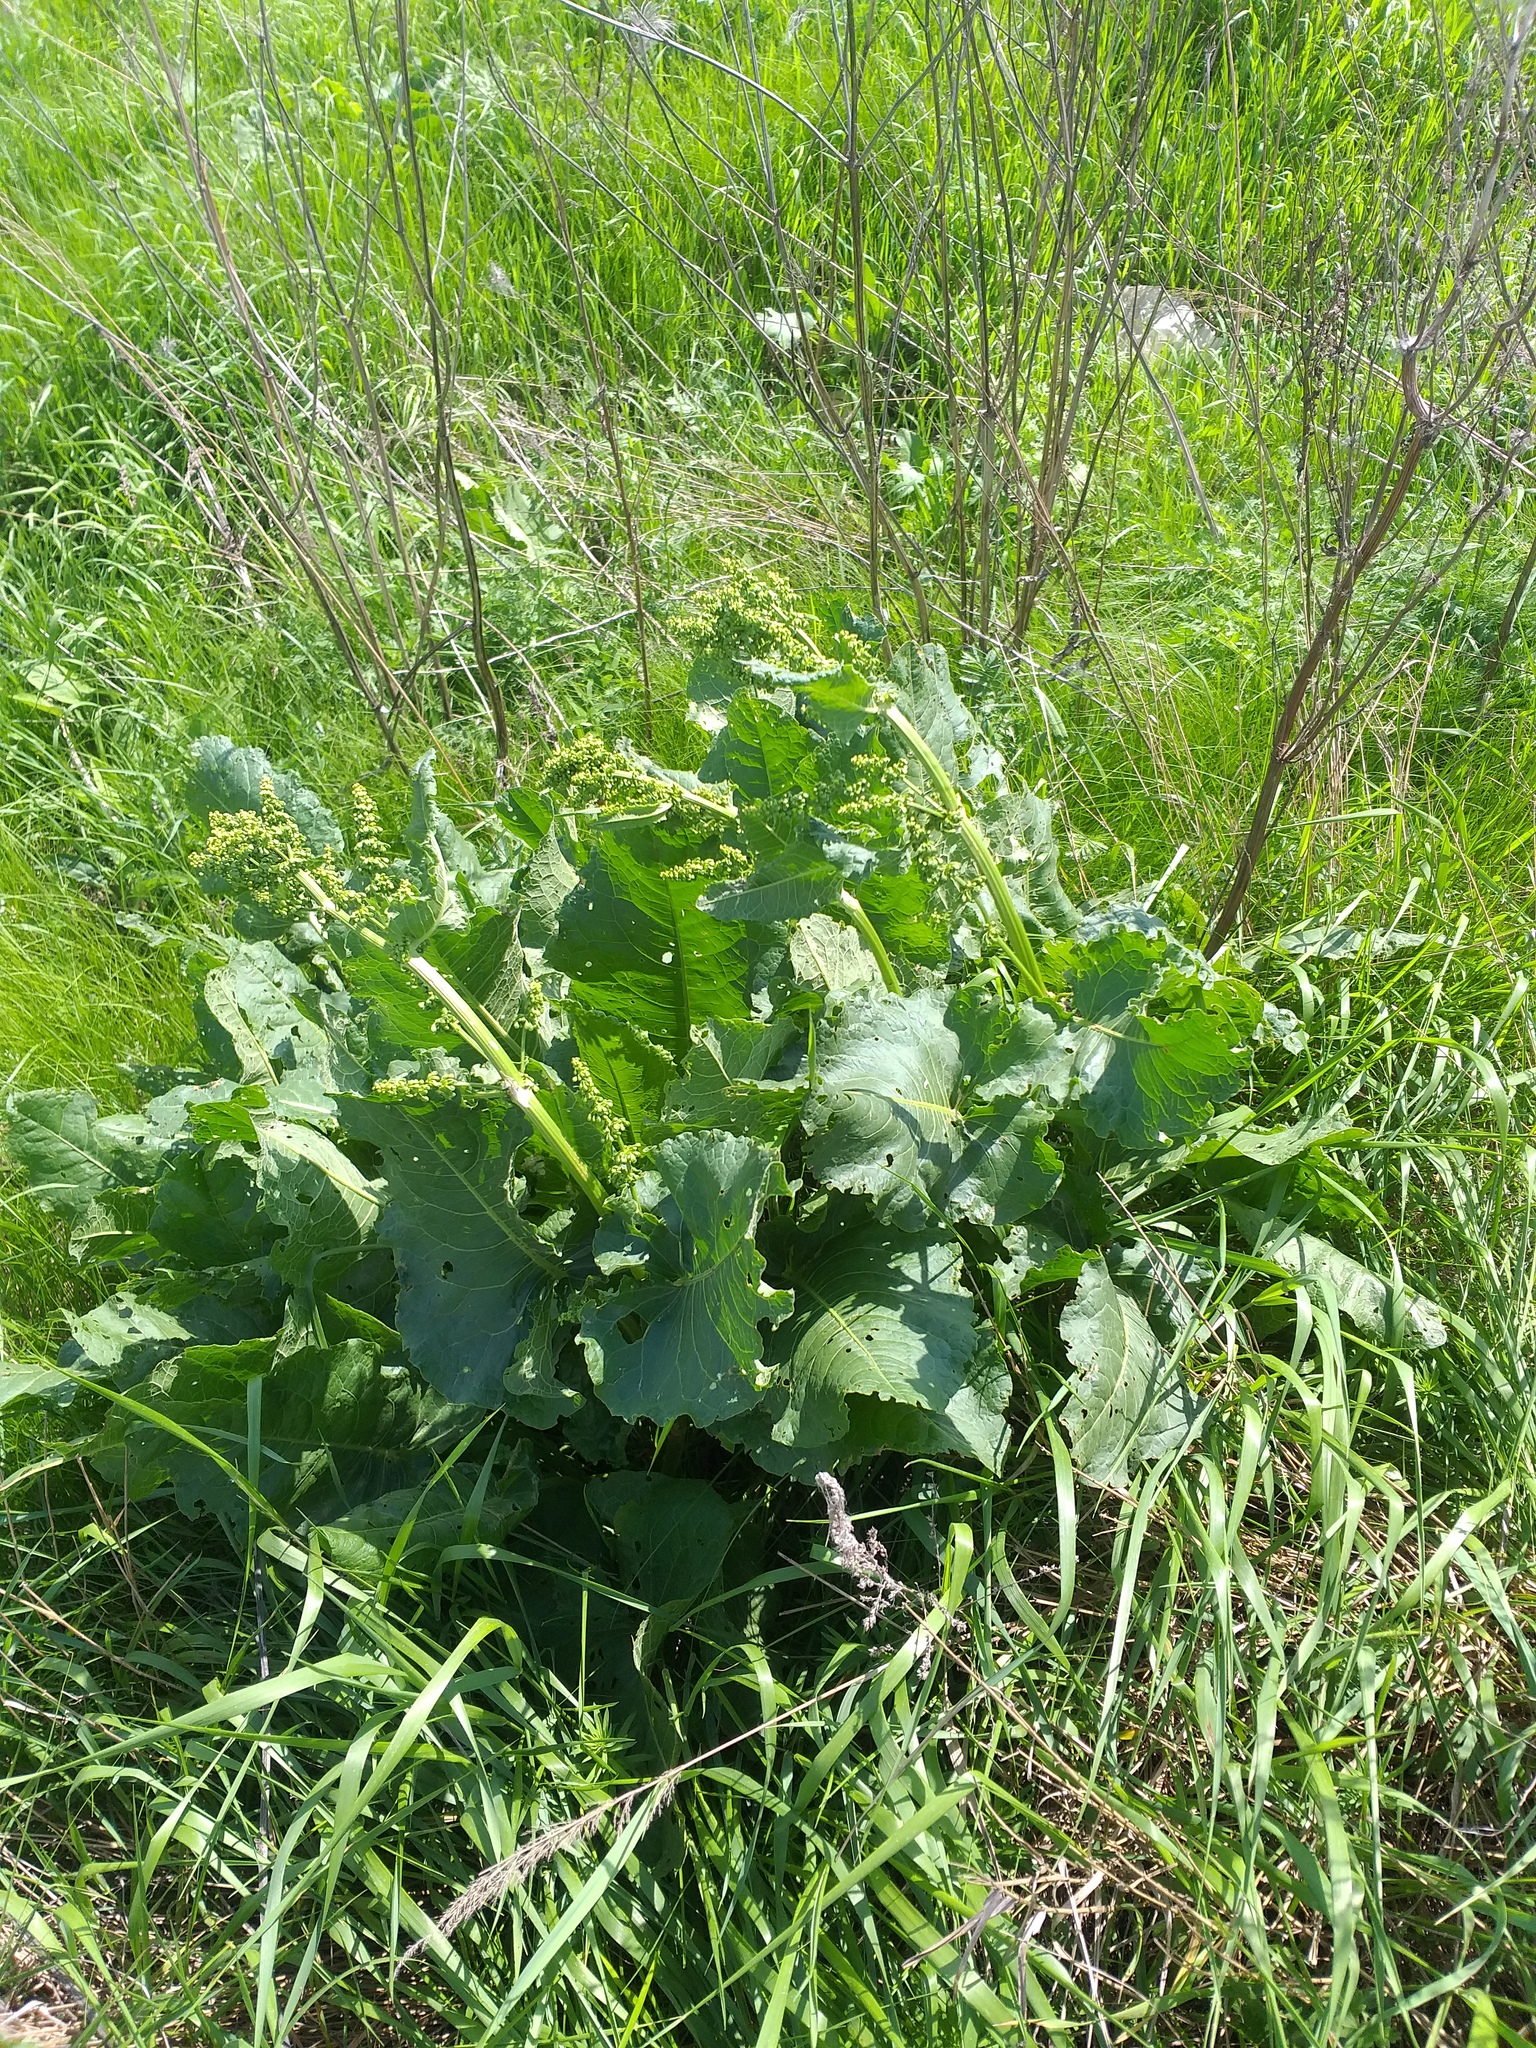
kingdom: Plantae
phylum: Tracheophyta
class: Magnoliopsida
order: Caryophyllales
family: Polygonaceae
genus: Rumex
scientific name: Rumex confertus
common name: Russian dock
